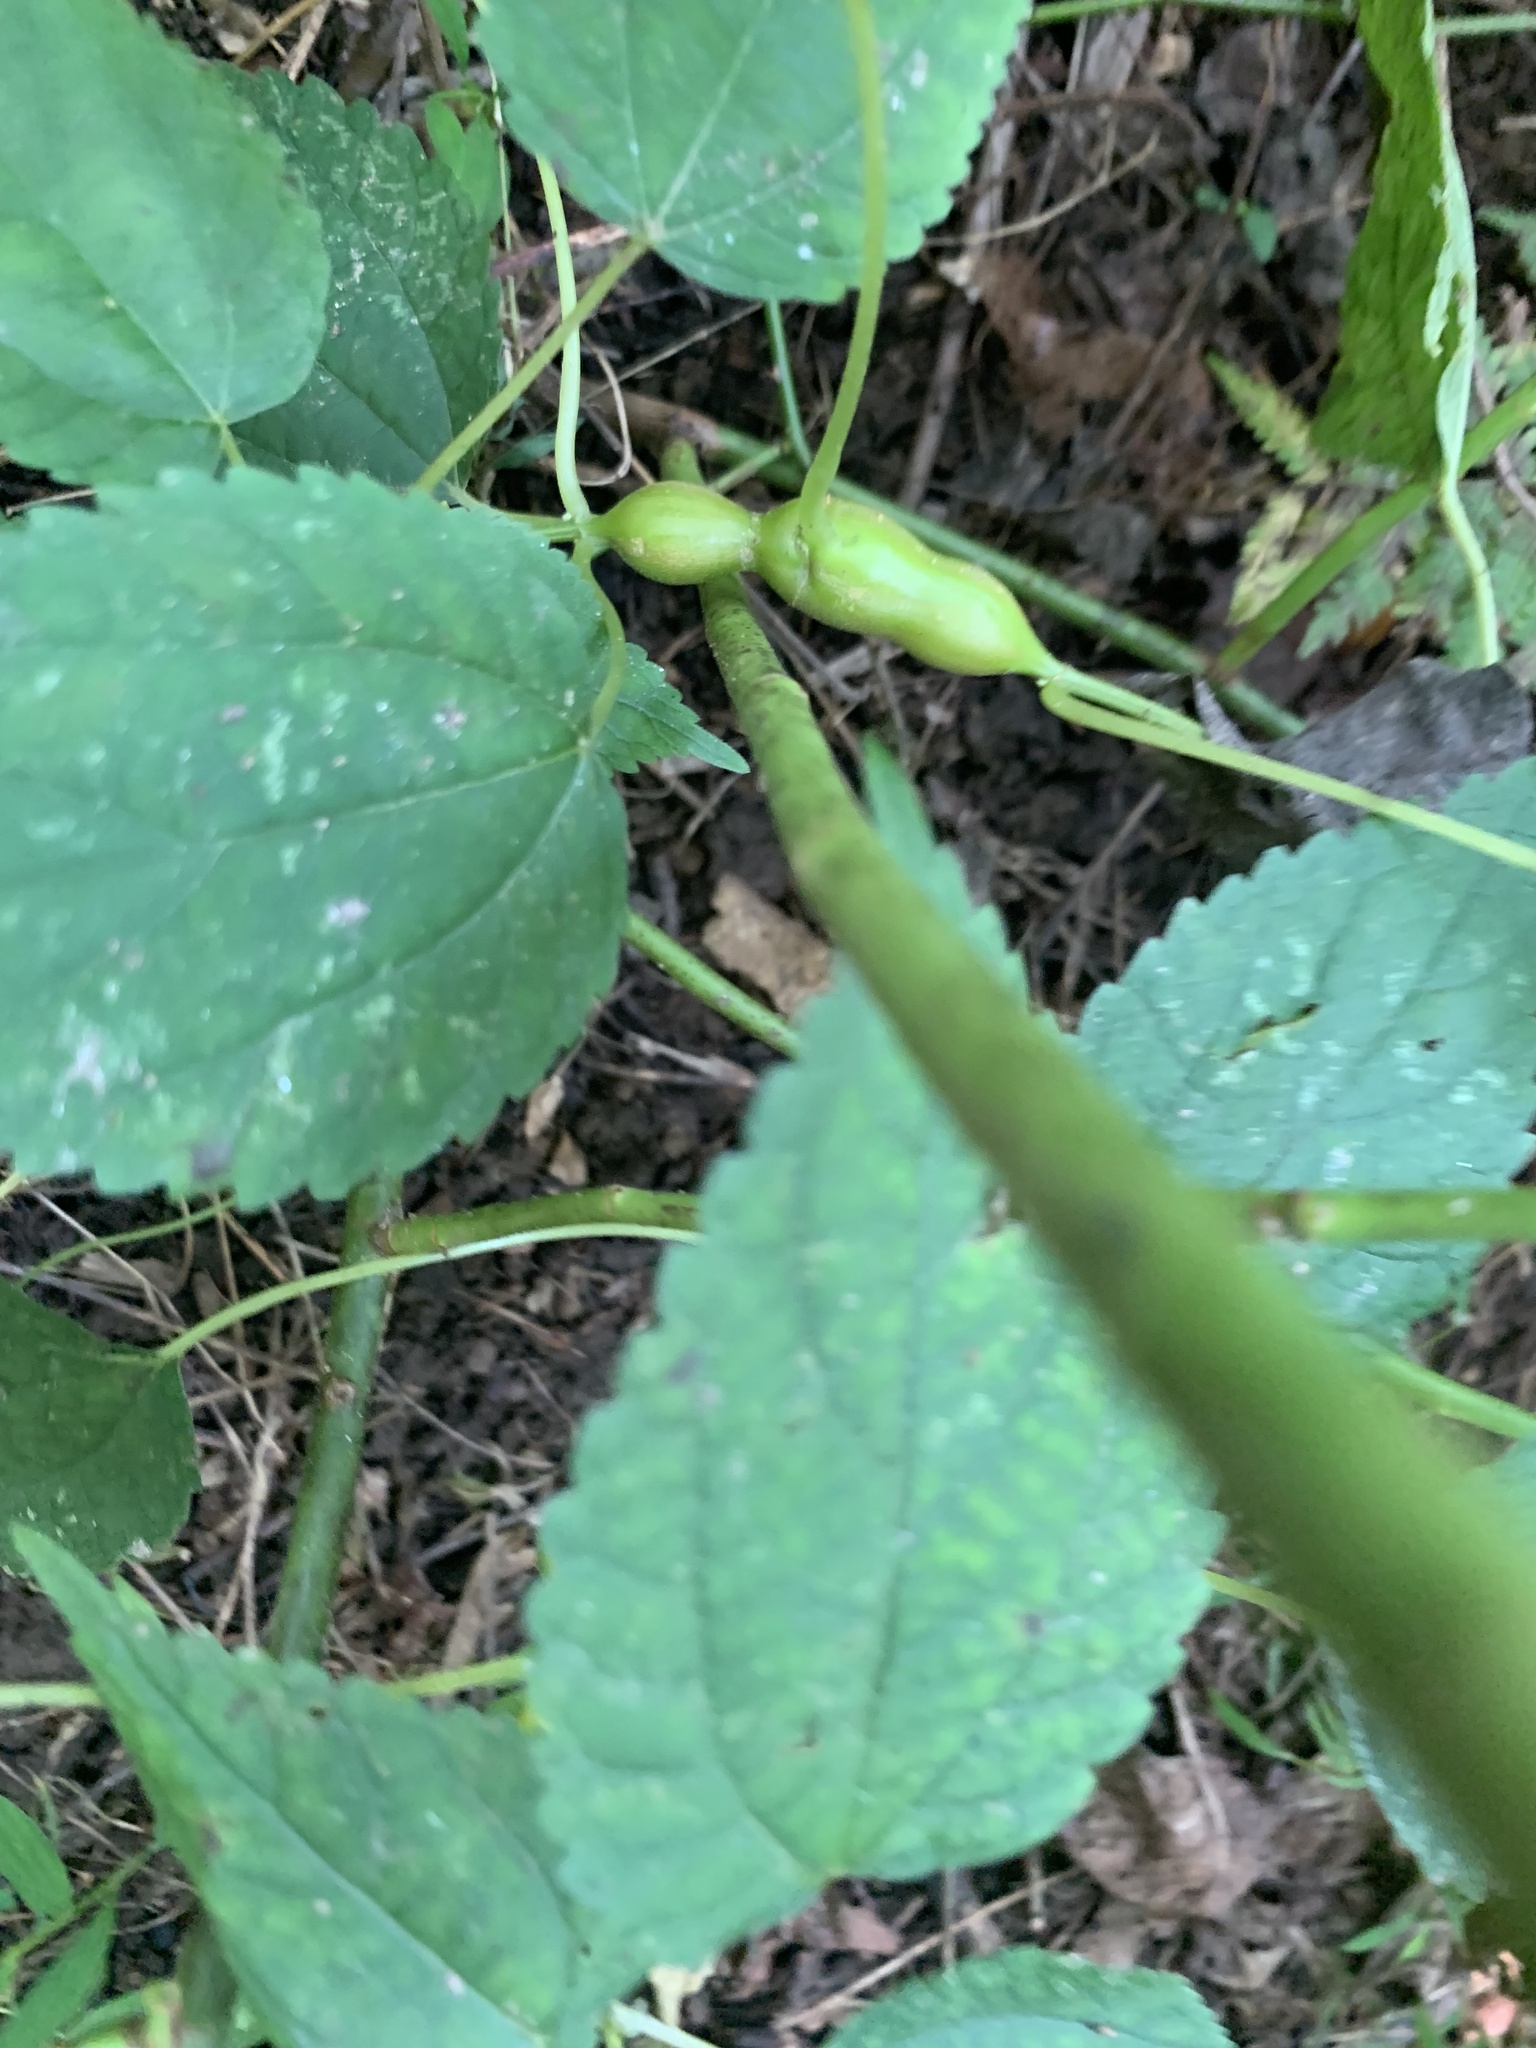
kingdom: Animalia
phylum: Arthropoda
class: Insecta
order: Diptera
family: Cecidomyiidae
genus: Neolasioptera
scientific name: Neolasioptera boehmeriae
